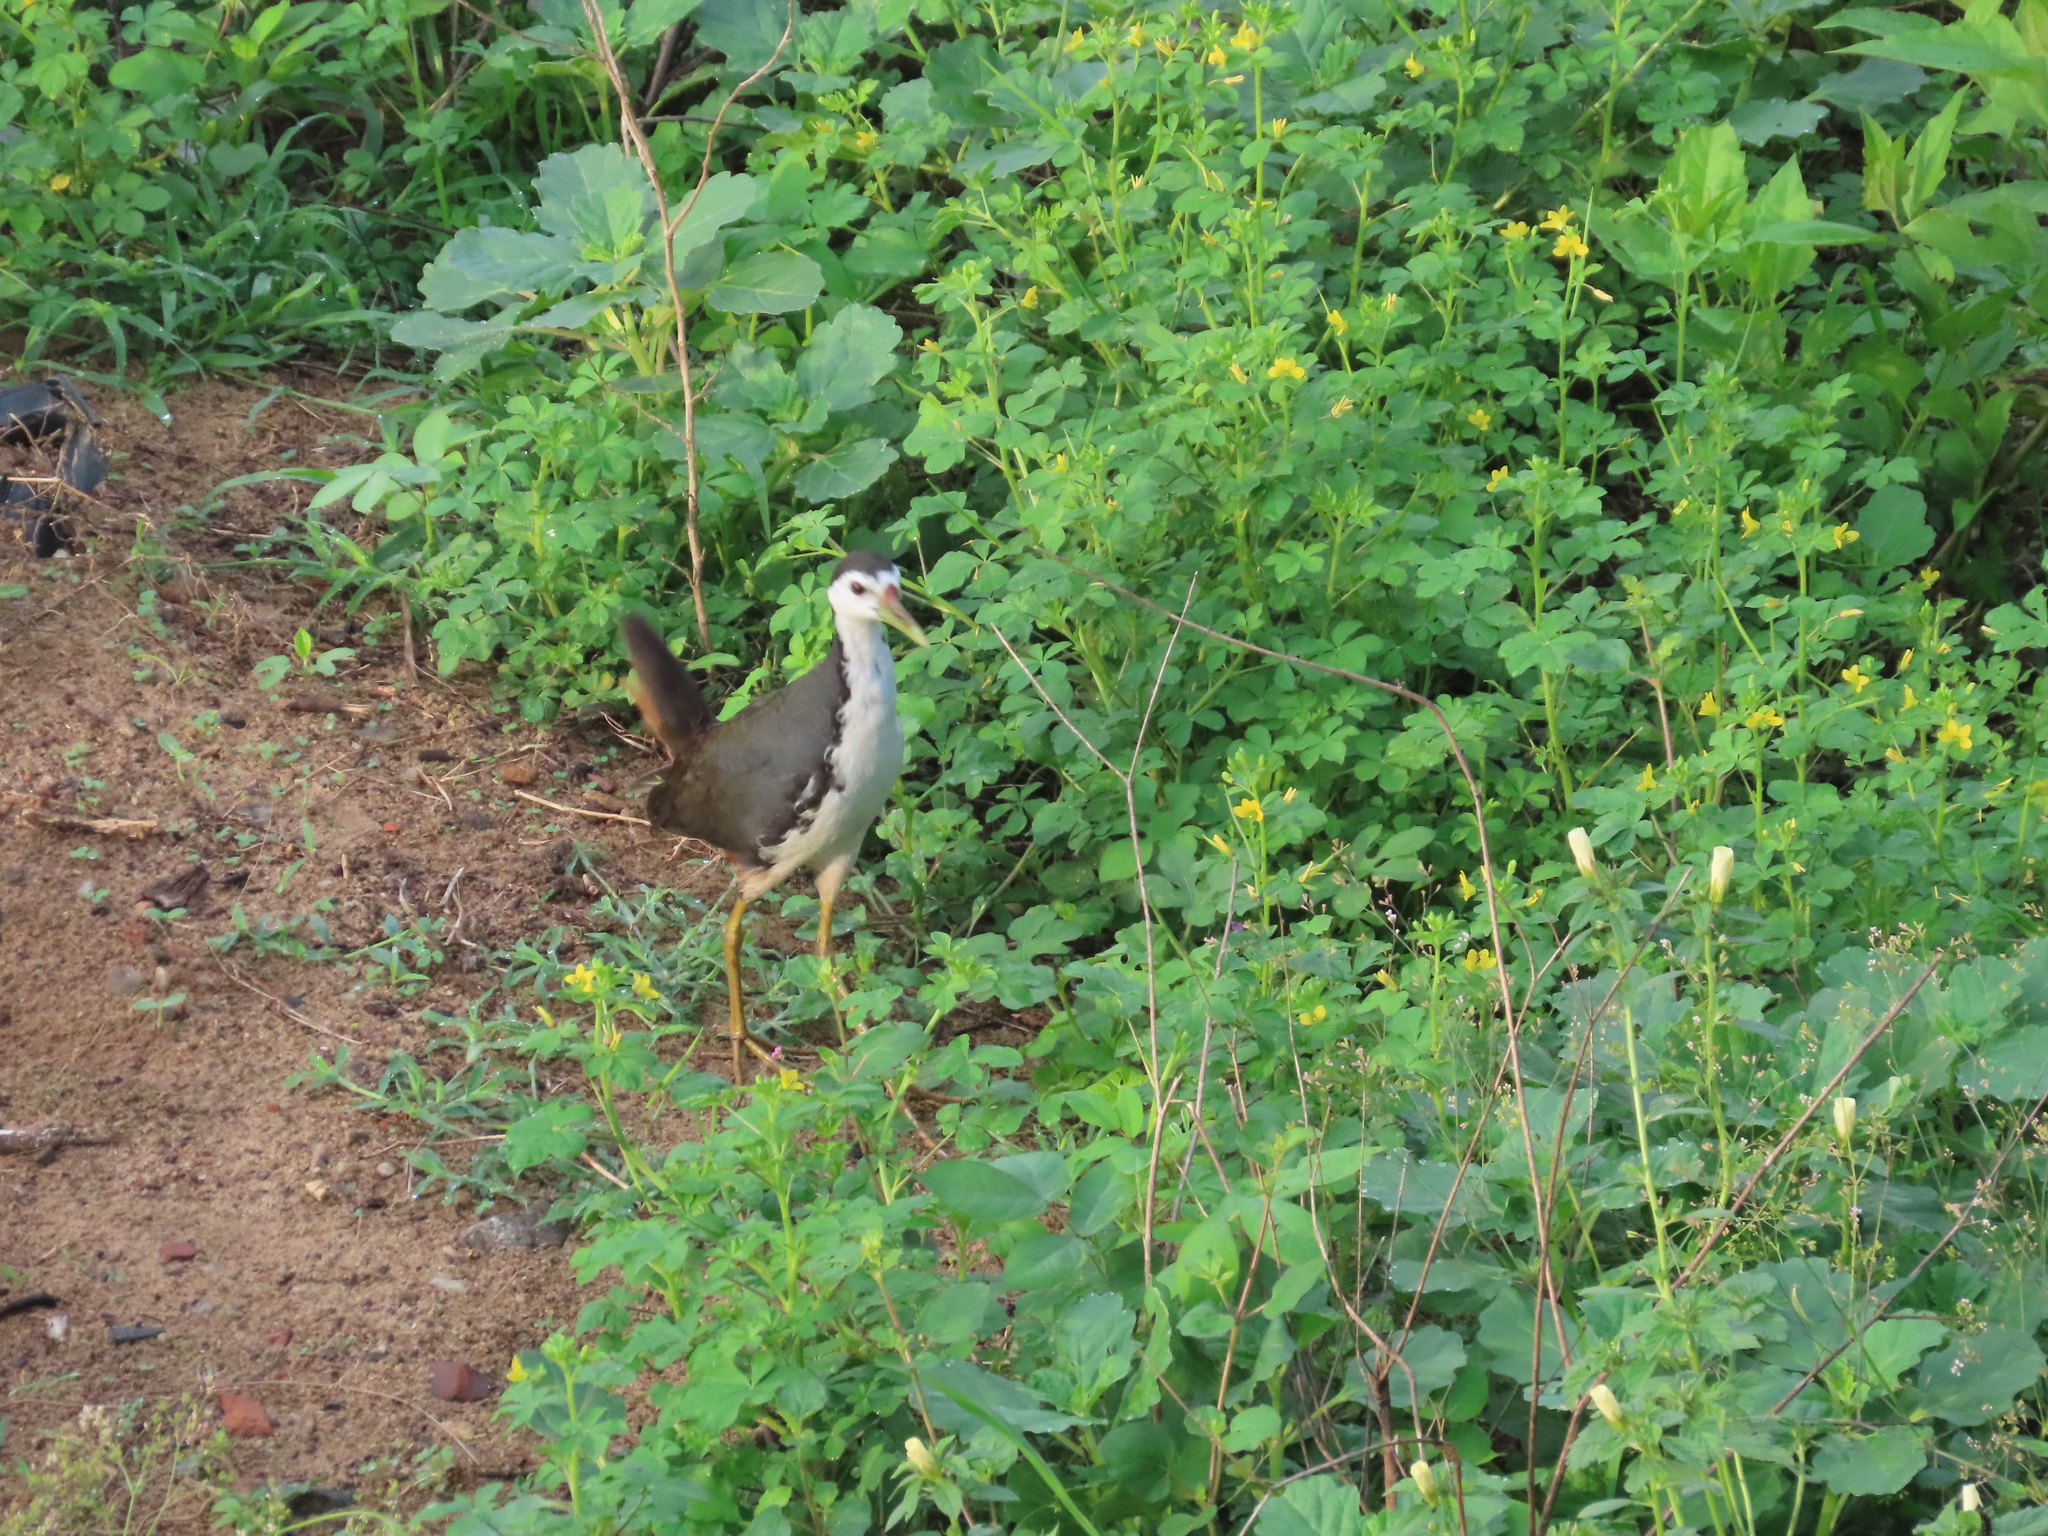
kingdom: Animalia
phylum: Chordata
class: Aves
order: Gruiformes
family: Rallidae
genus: Amaurornis
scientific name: Amaurornis phoenicurus
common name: White-breasted waterhen
